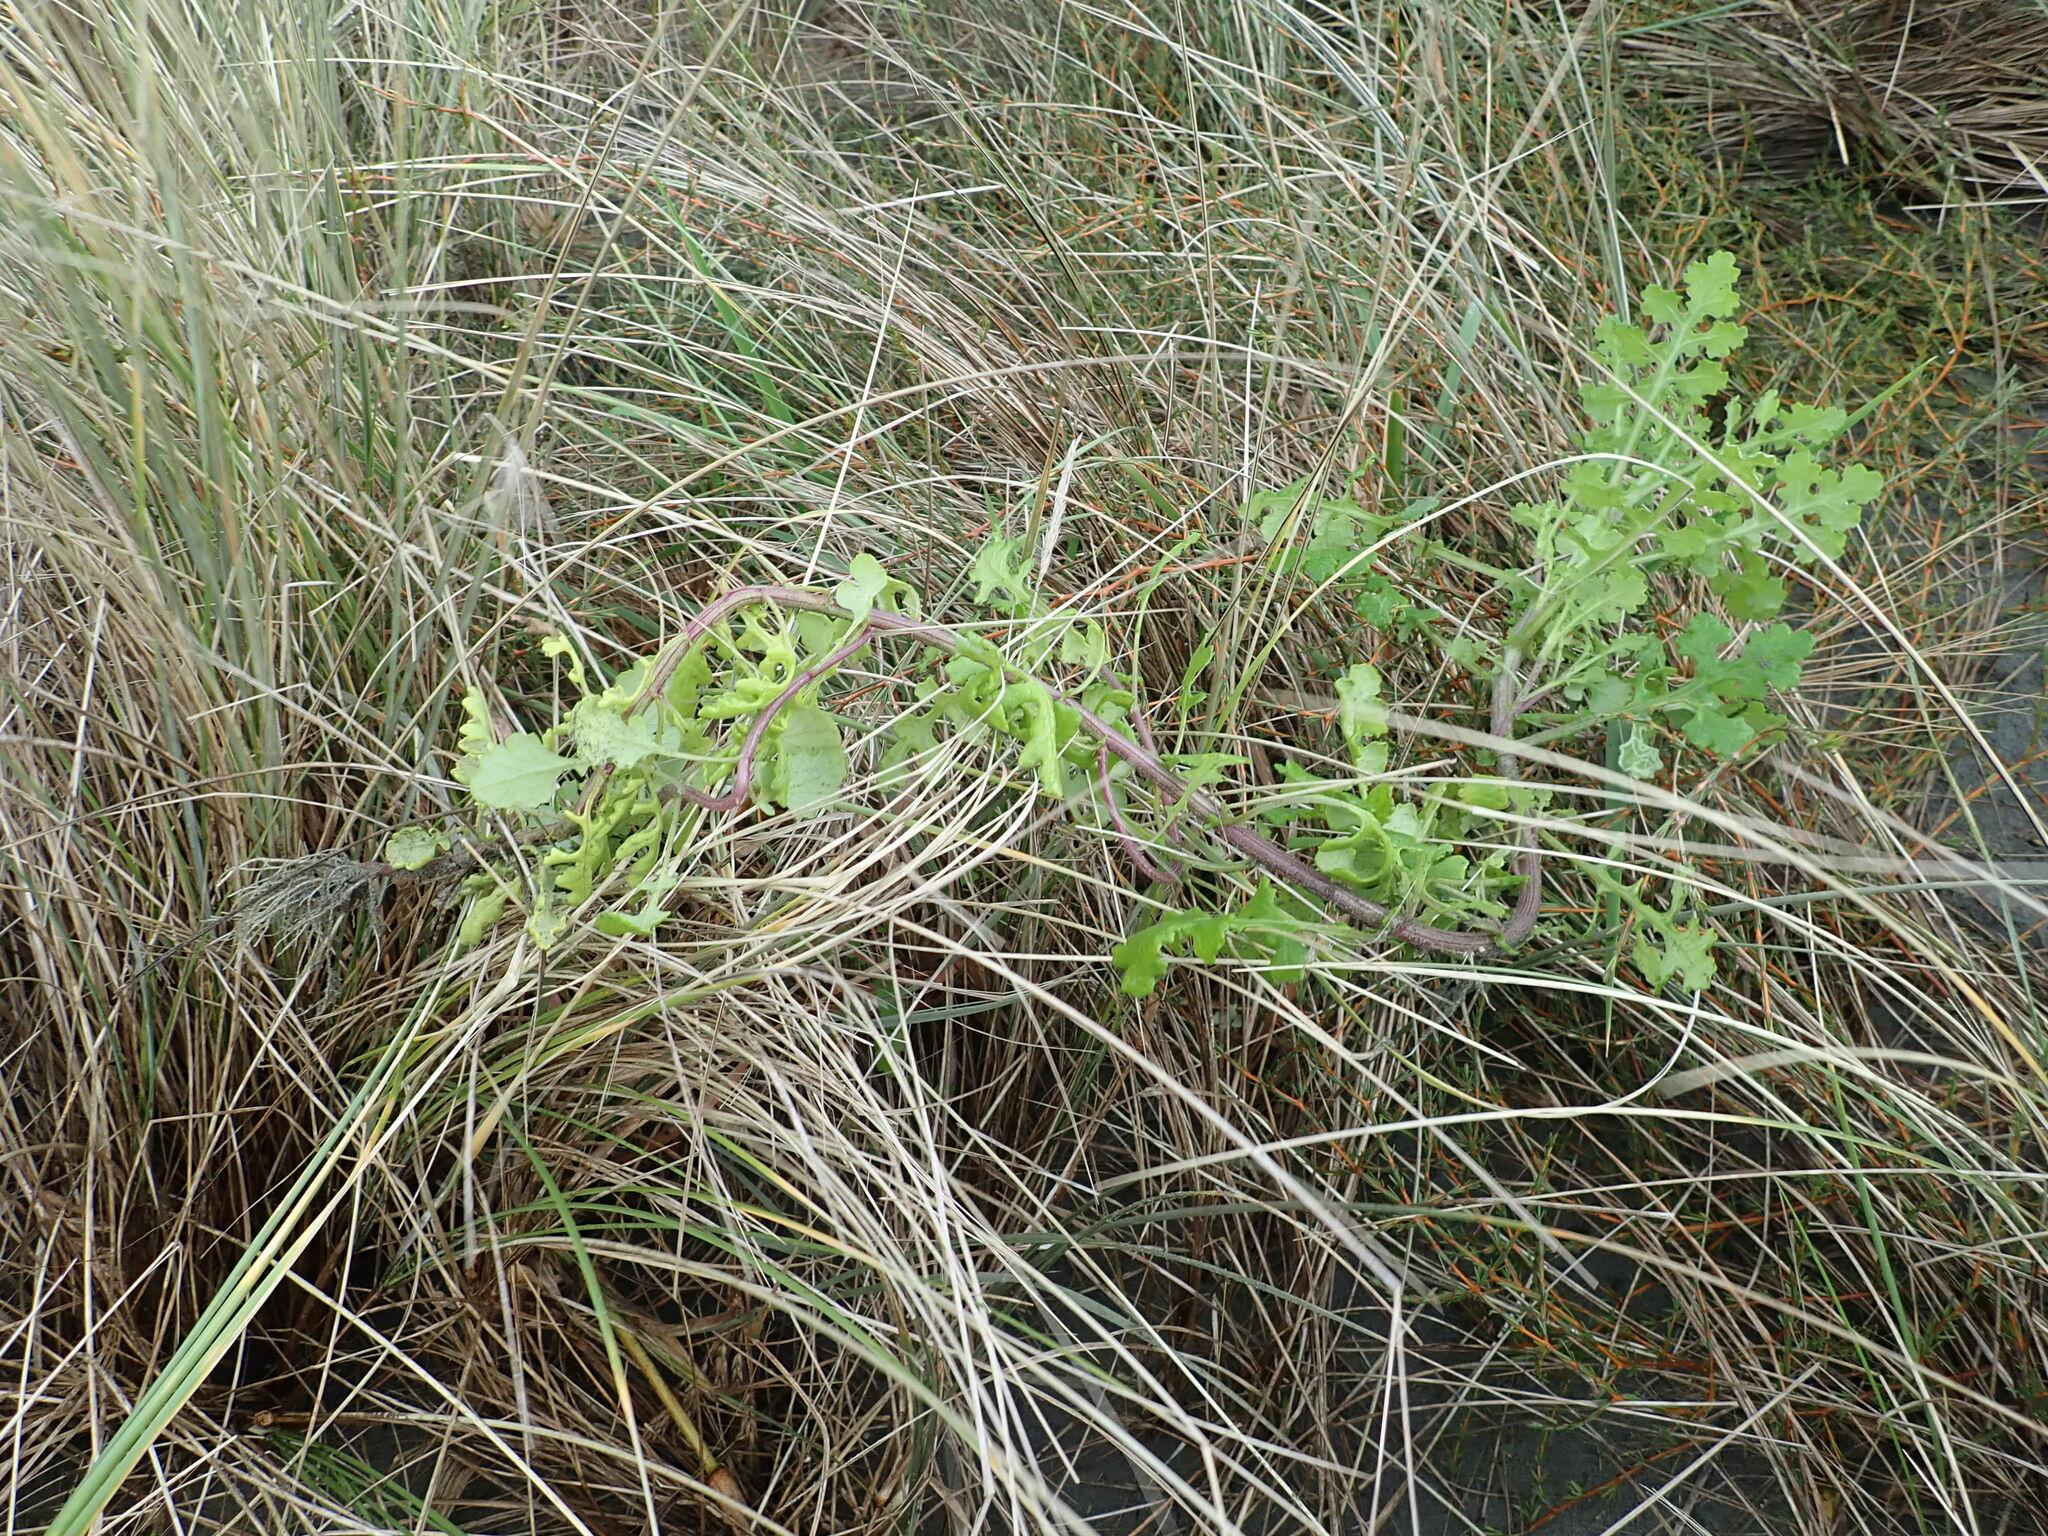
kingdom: Plantae
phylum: Tracheophyta
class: Magnoliopsida
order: Asterales
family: Asteraceae
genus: Senecio
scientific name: Senecio elegans
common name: Purple groundsel
